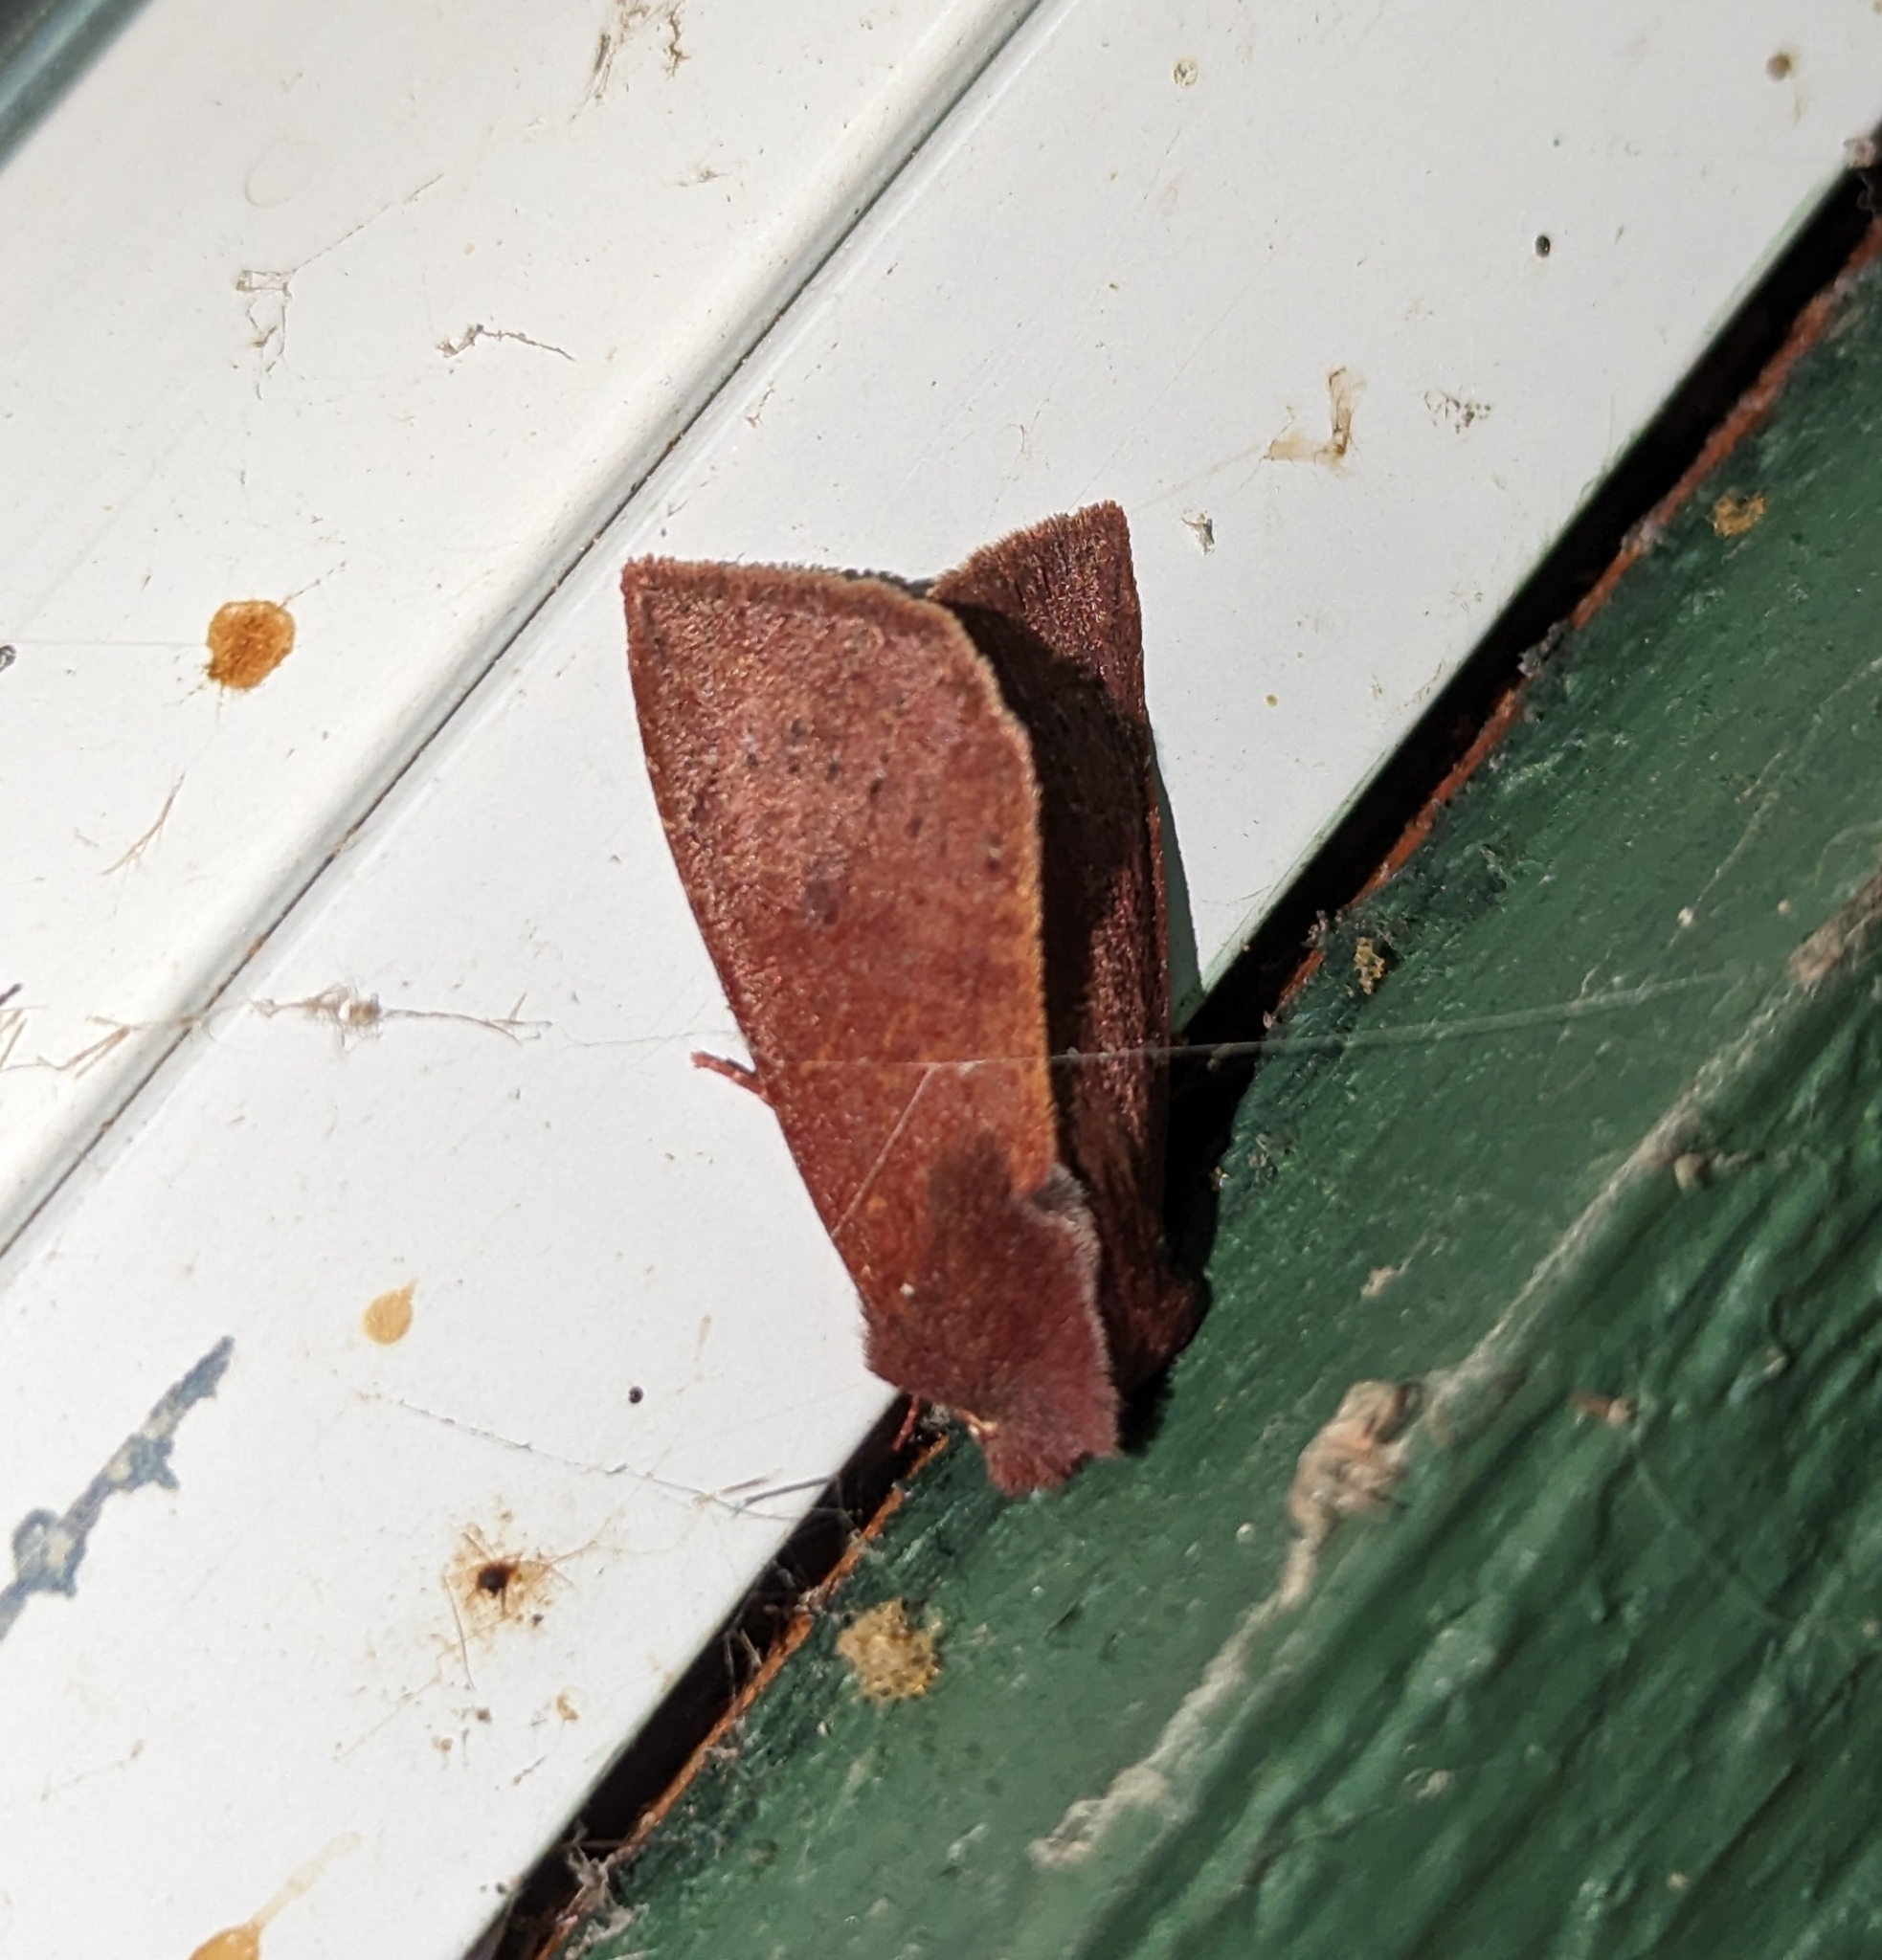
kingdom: Animalia
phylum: Arthropoda
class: Insecta
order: Lepidoptera
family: Noctuidae
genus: Orthosia
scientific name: Orthosia transparens
